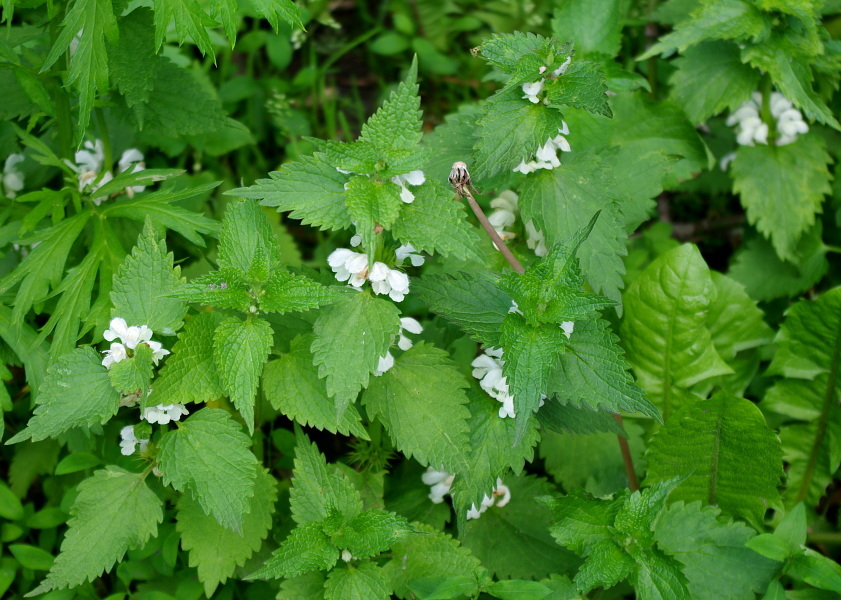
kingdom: Plantae
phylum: Tracheophyta
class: Magnoliopsida
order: Lamiales
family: Lamiaceae
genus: Lamium
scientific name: Lamium album
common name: White dead-nettle
